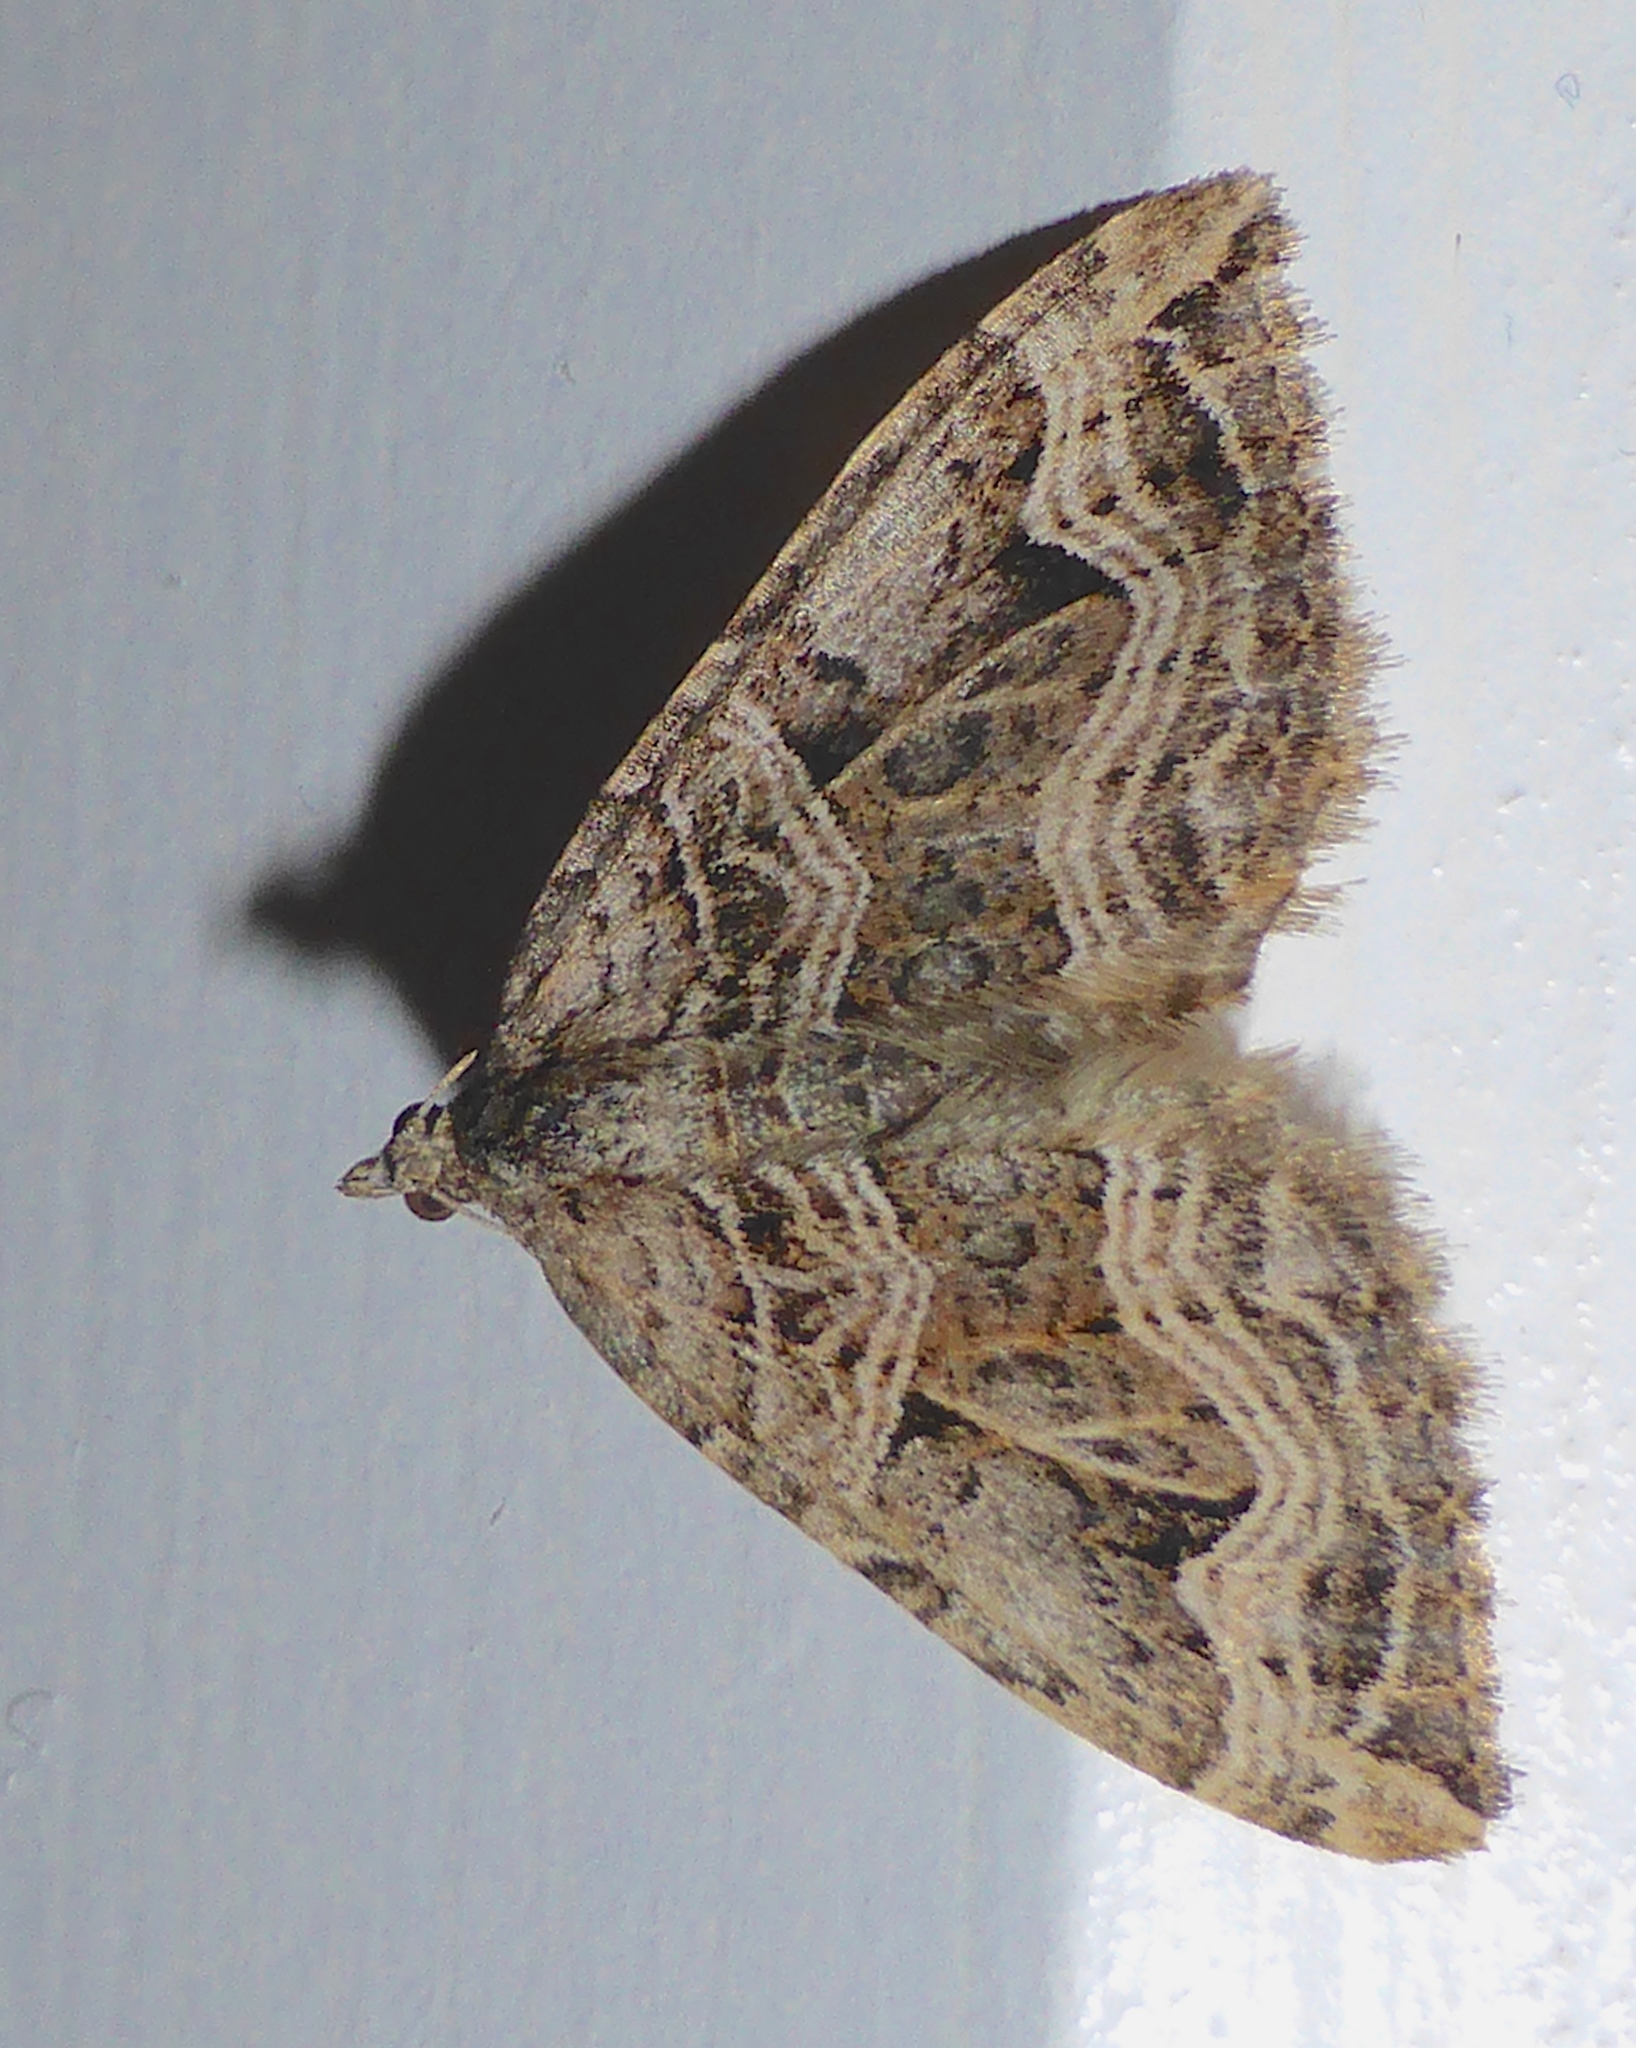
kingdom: Animalia
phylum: Arthropoda
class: Insecta
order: Lepidoptera
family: Geometridae
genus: Xanthorhoe
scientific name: Xanthorhoe semifissata
